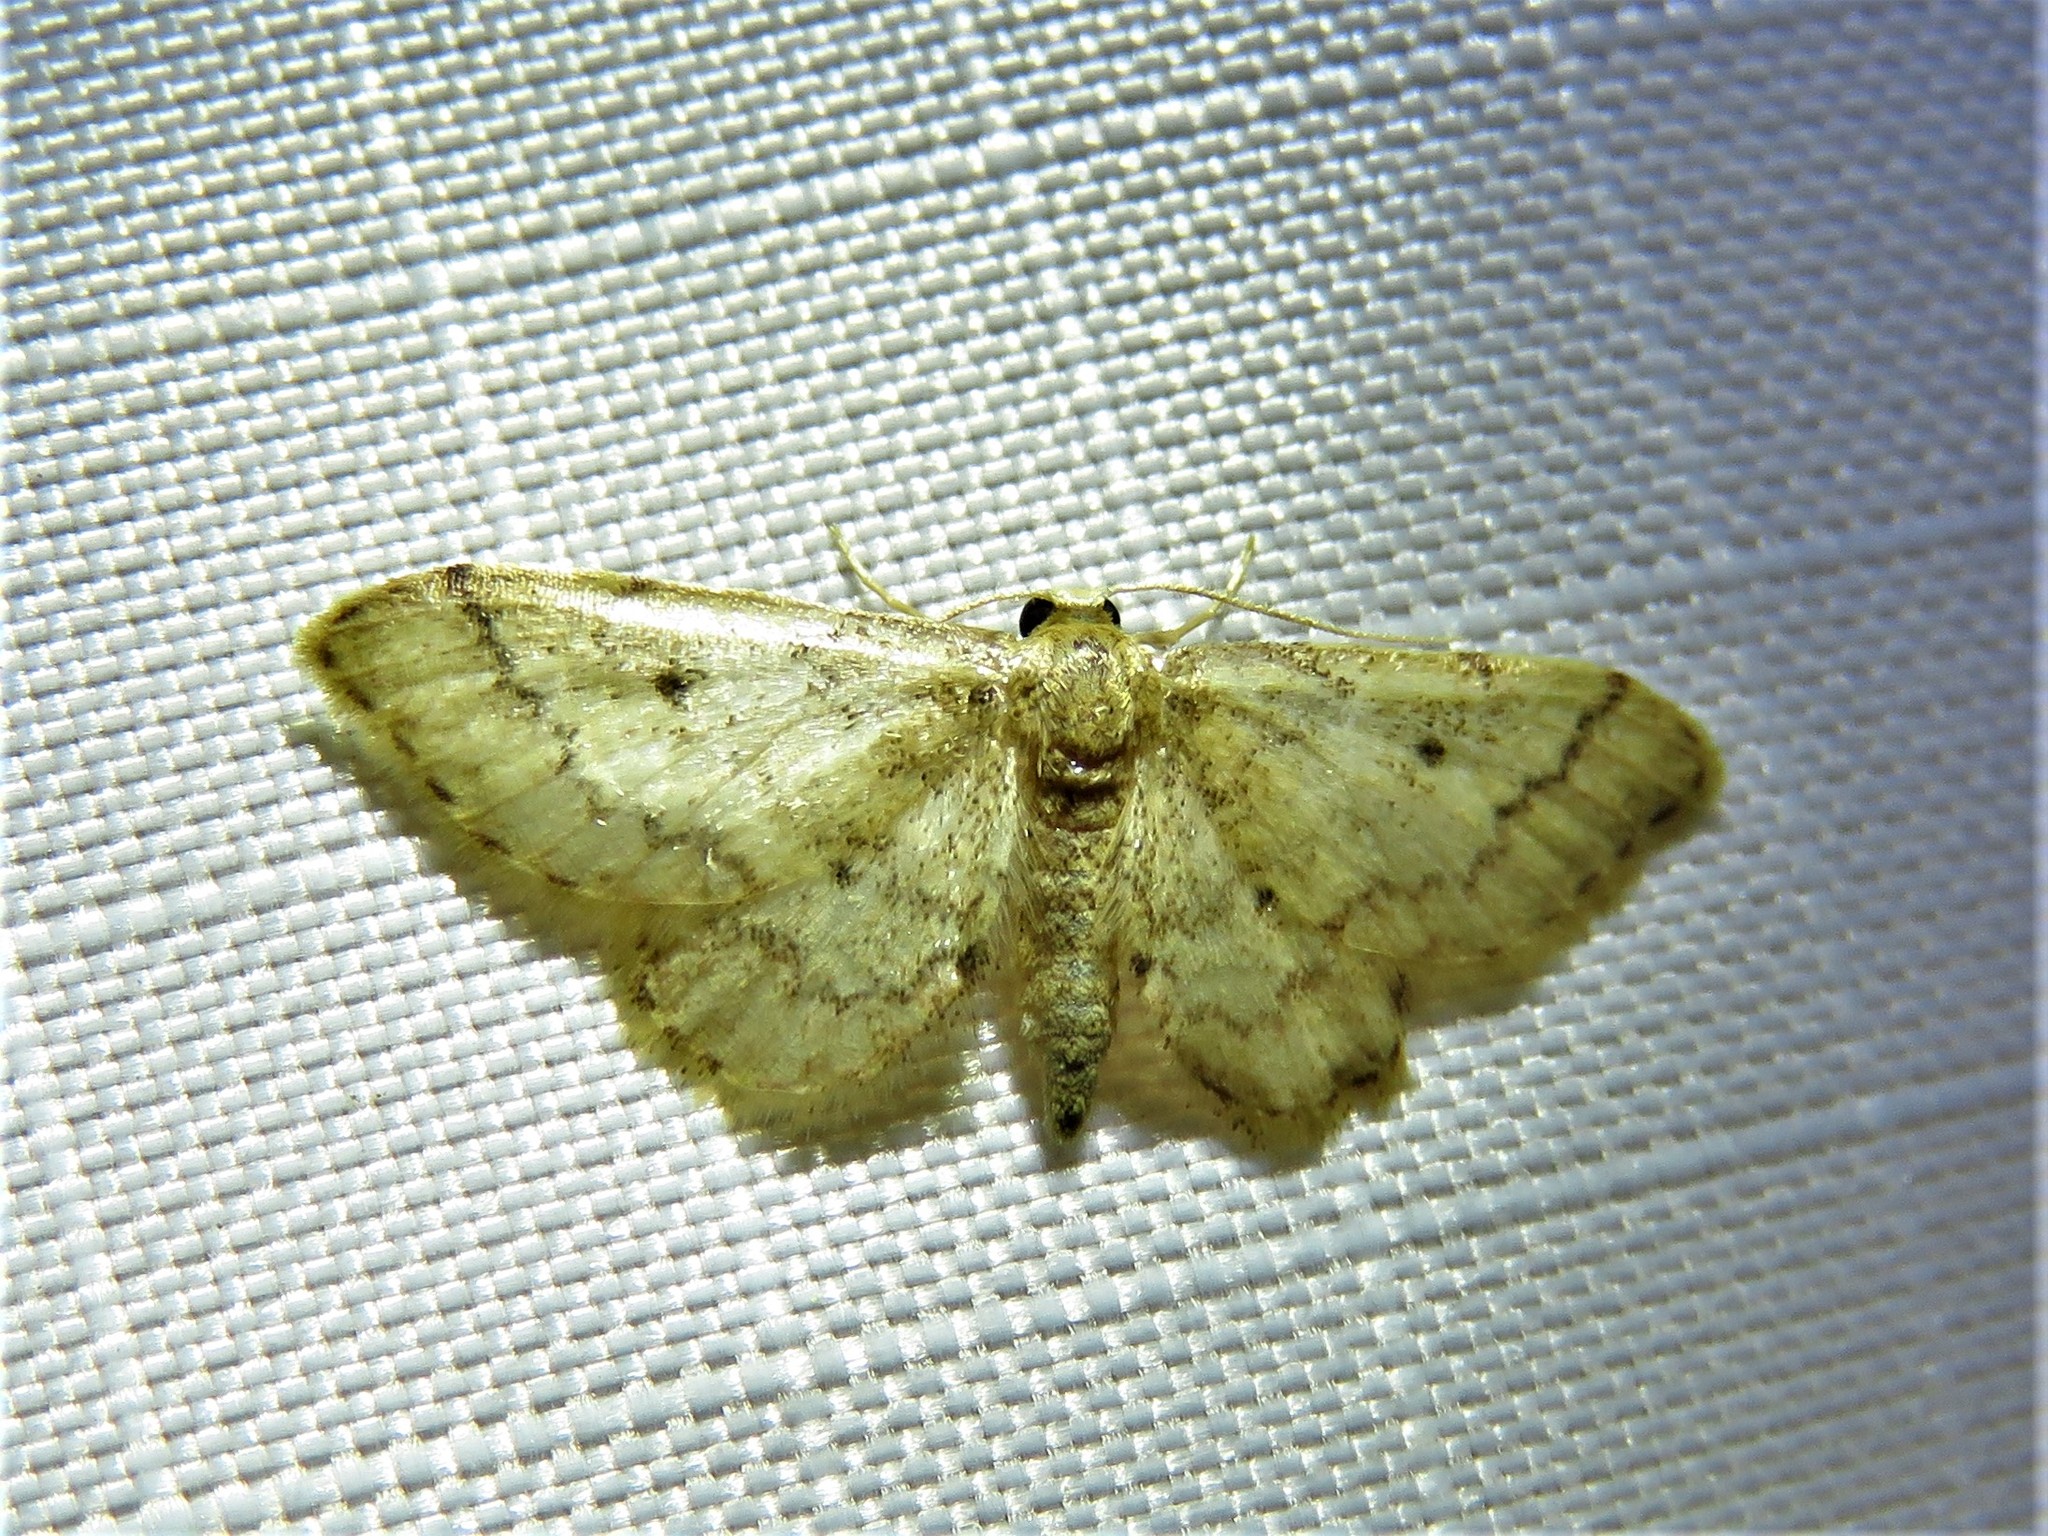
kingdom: Animalia
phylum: Arthropoda
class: Insecta
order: Lepidoptera
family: Geometridae
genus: Idaea
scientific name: Idaea celtima
